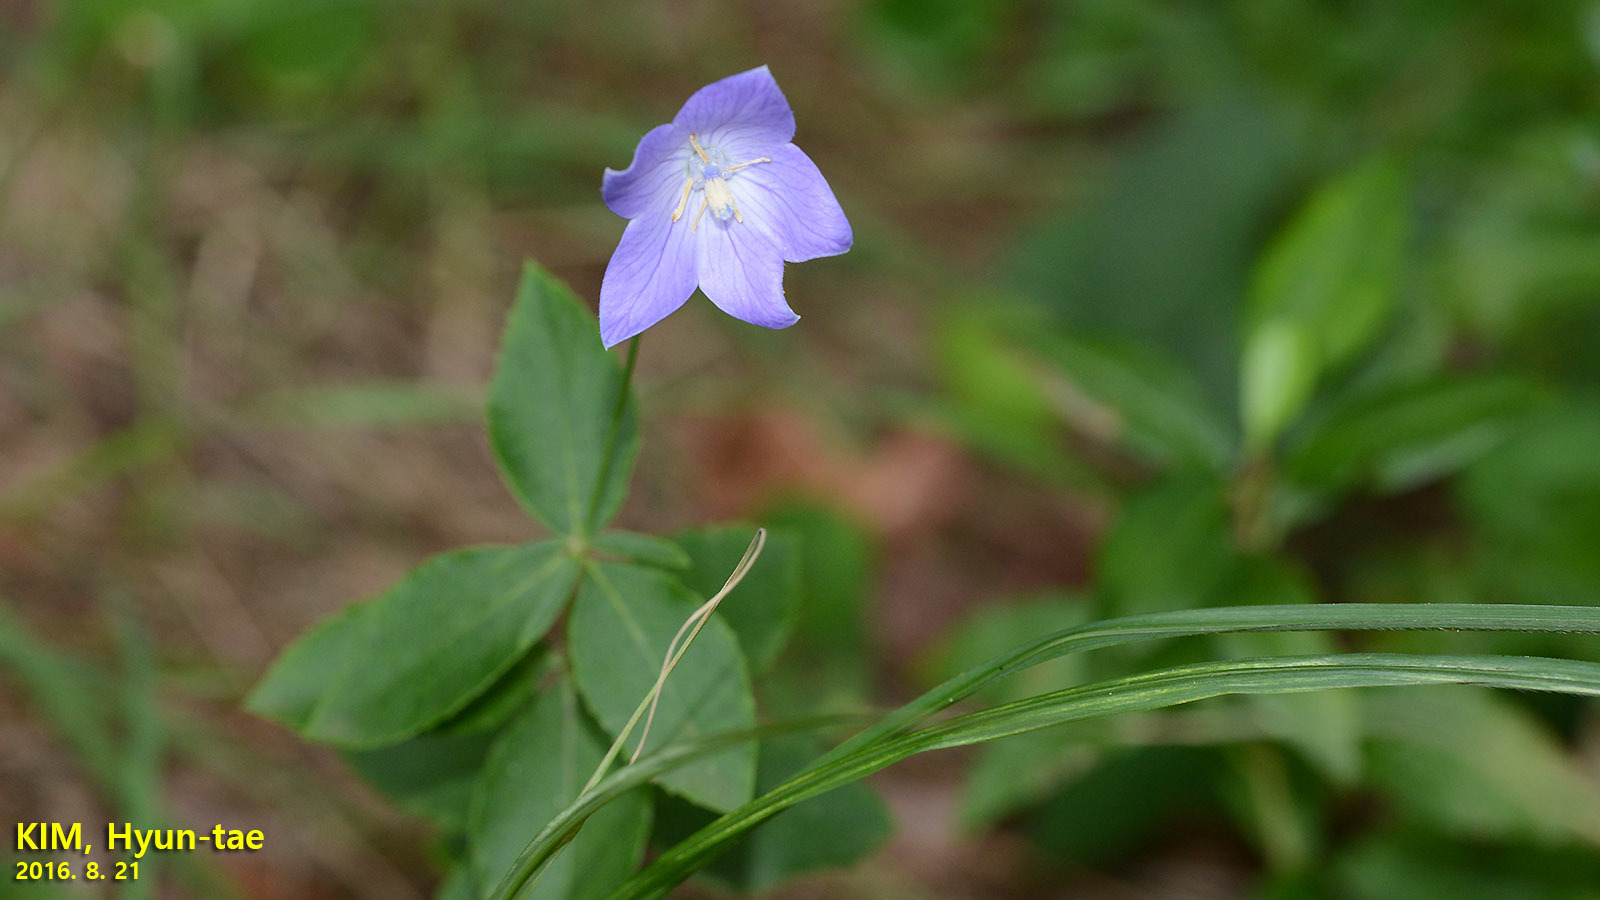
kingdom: Plantae
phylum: Tracheophyta
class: Magnoliopsida
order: Asterales
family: Campanulaceae
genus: Platycodon
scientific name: Platycodon grandiflorus
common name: Balloon-flower
